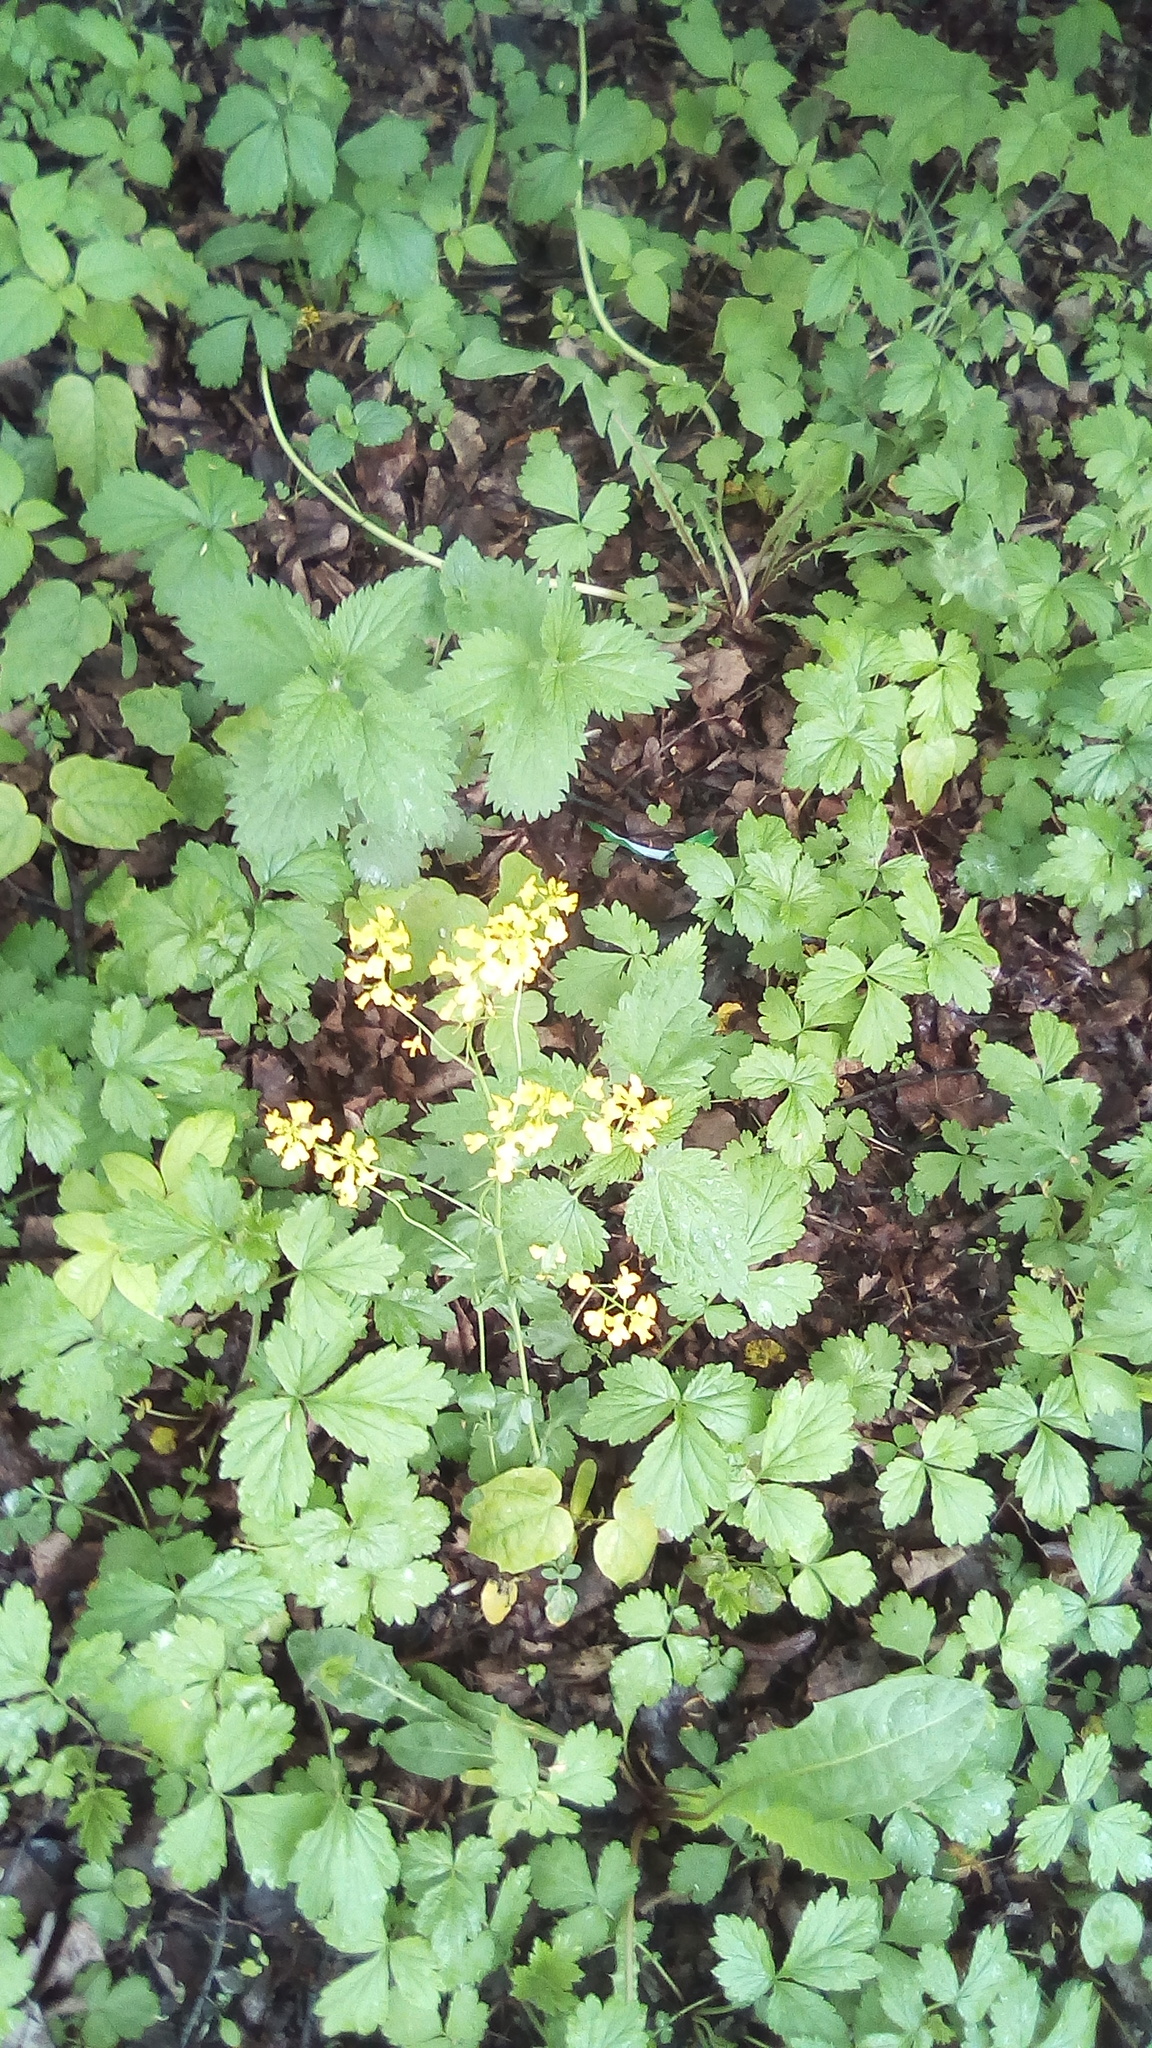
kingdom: Plantae
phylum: Tracheophyta
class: Magnoliopsida
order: Rosales
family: Rosaceae
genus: Geum
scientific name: Geum
